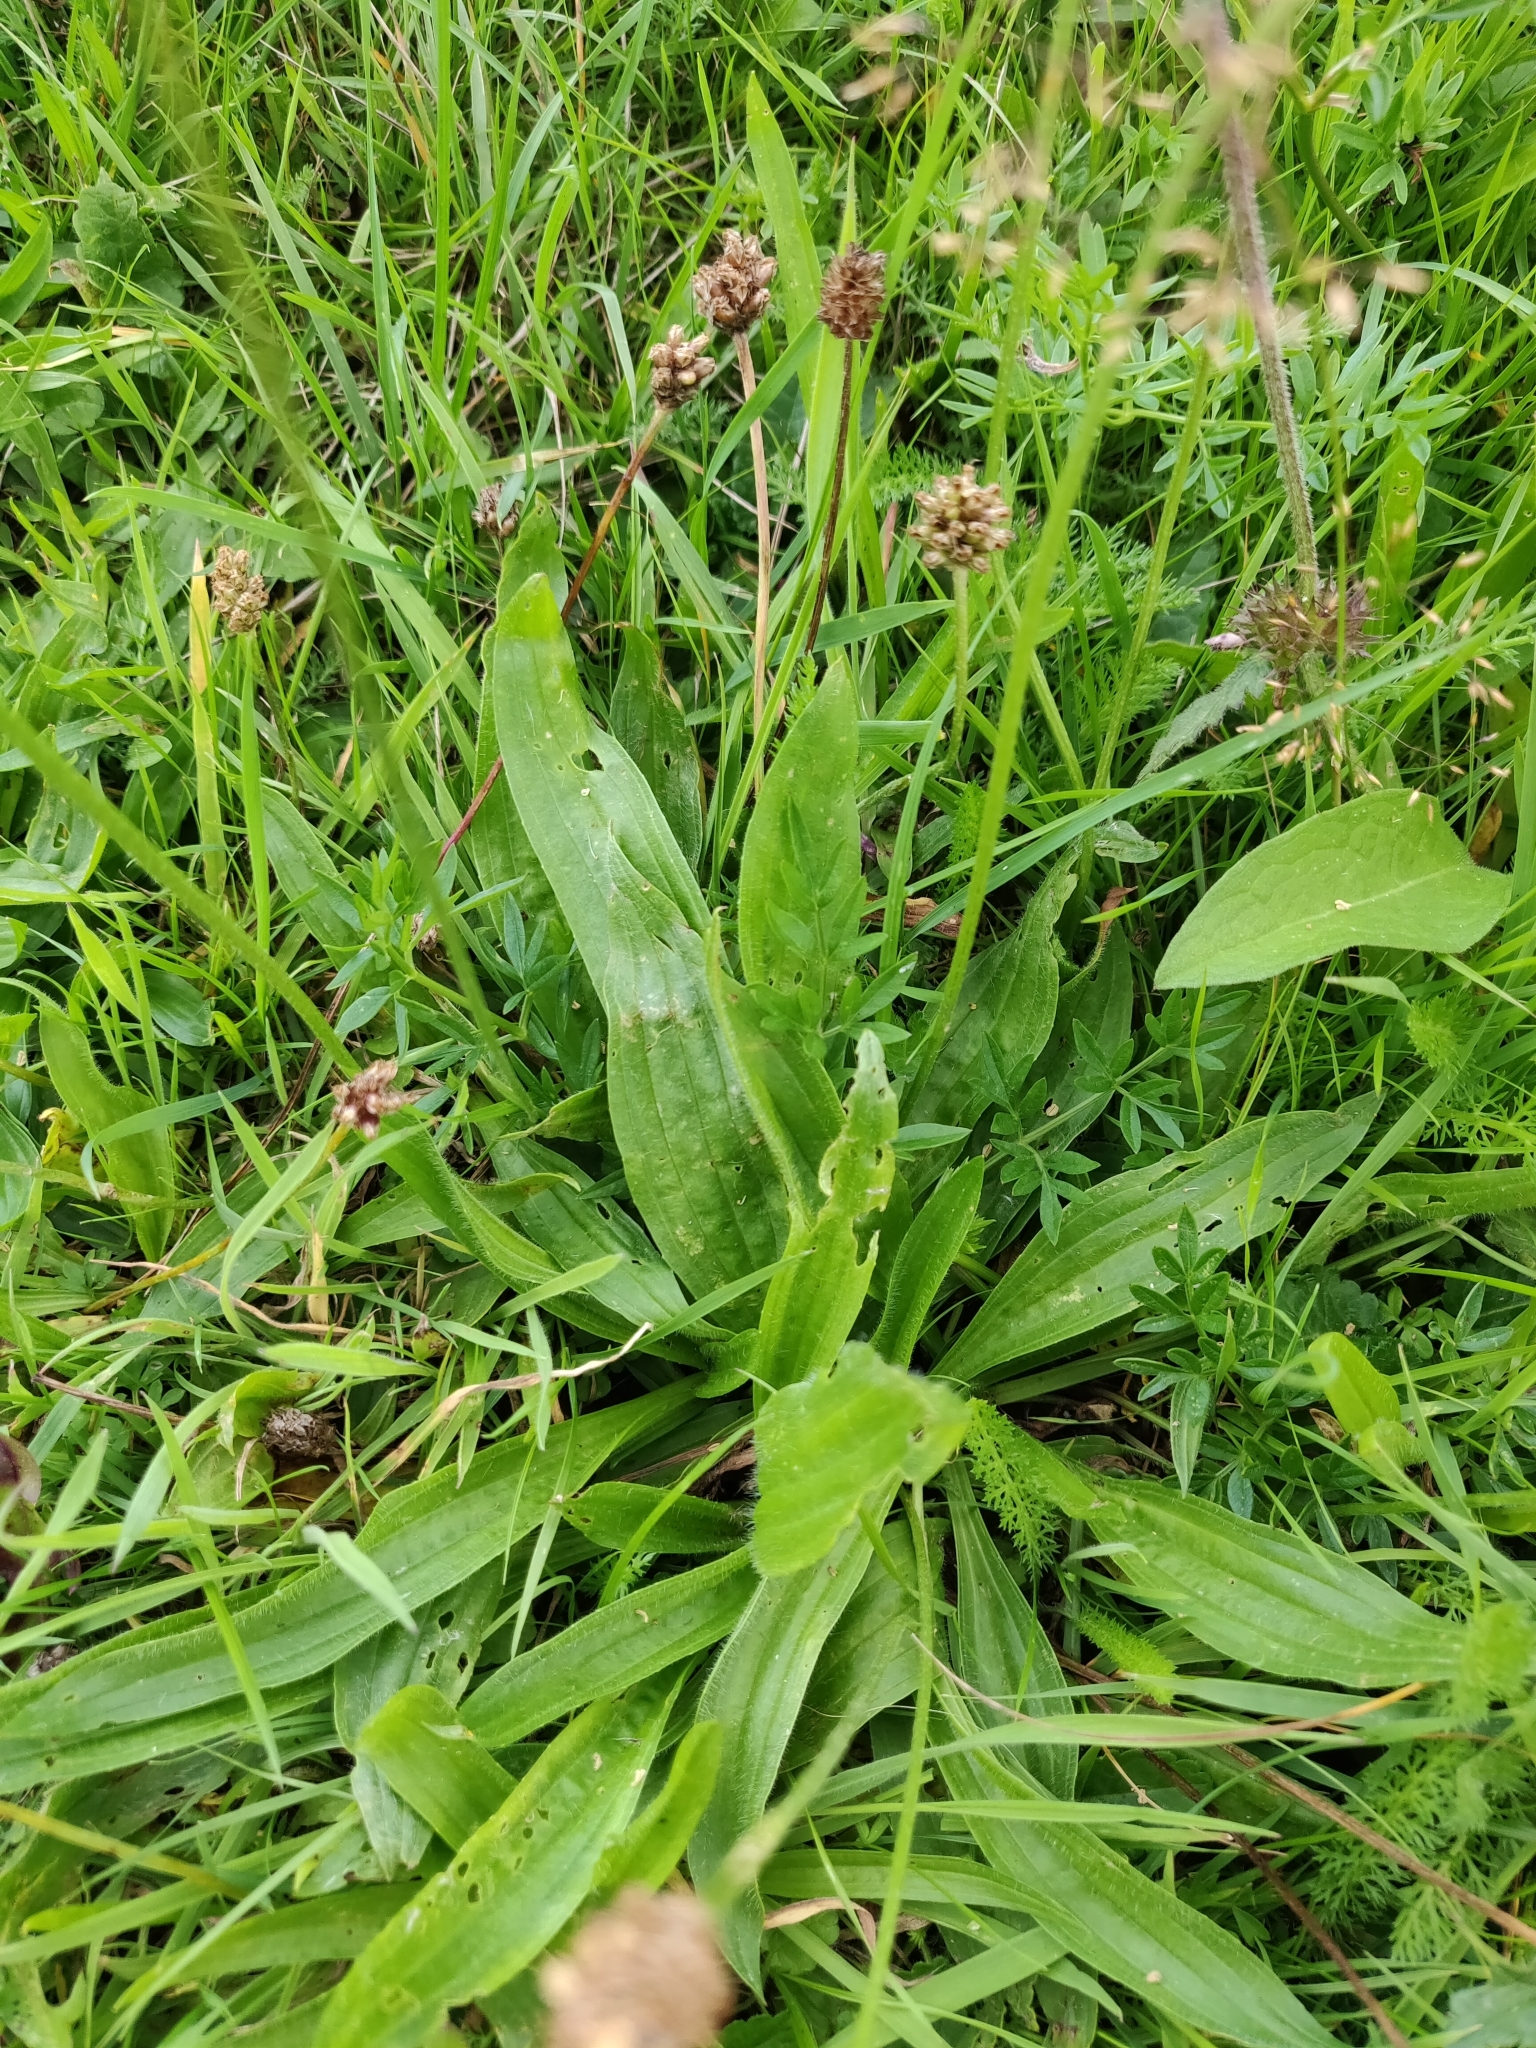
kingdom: Plantae
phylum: Tracheophyta
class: Magnoliopsida
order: Lamiales
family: Plantaginaceae
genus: Plantago
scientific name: Plantago lanceolata
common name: Ribwort plantain
